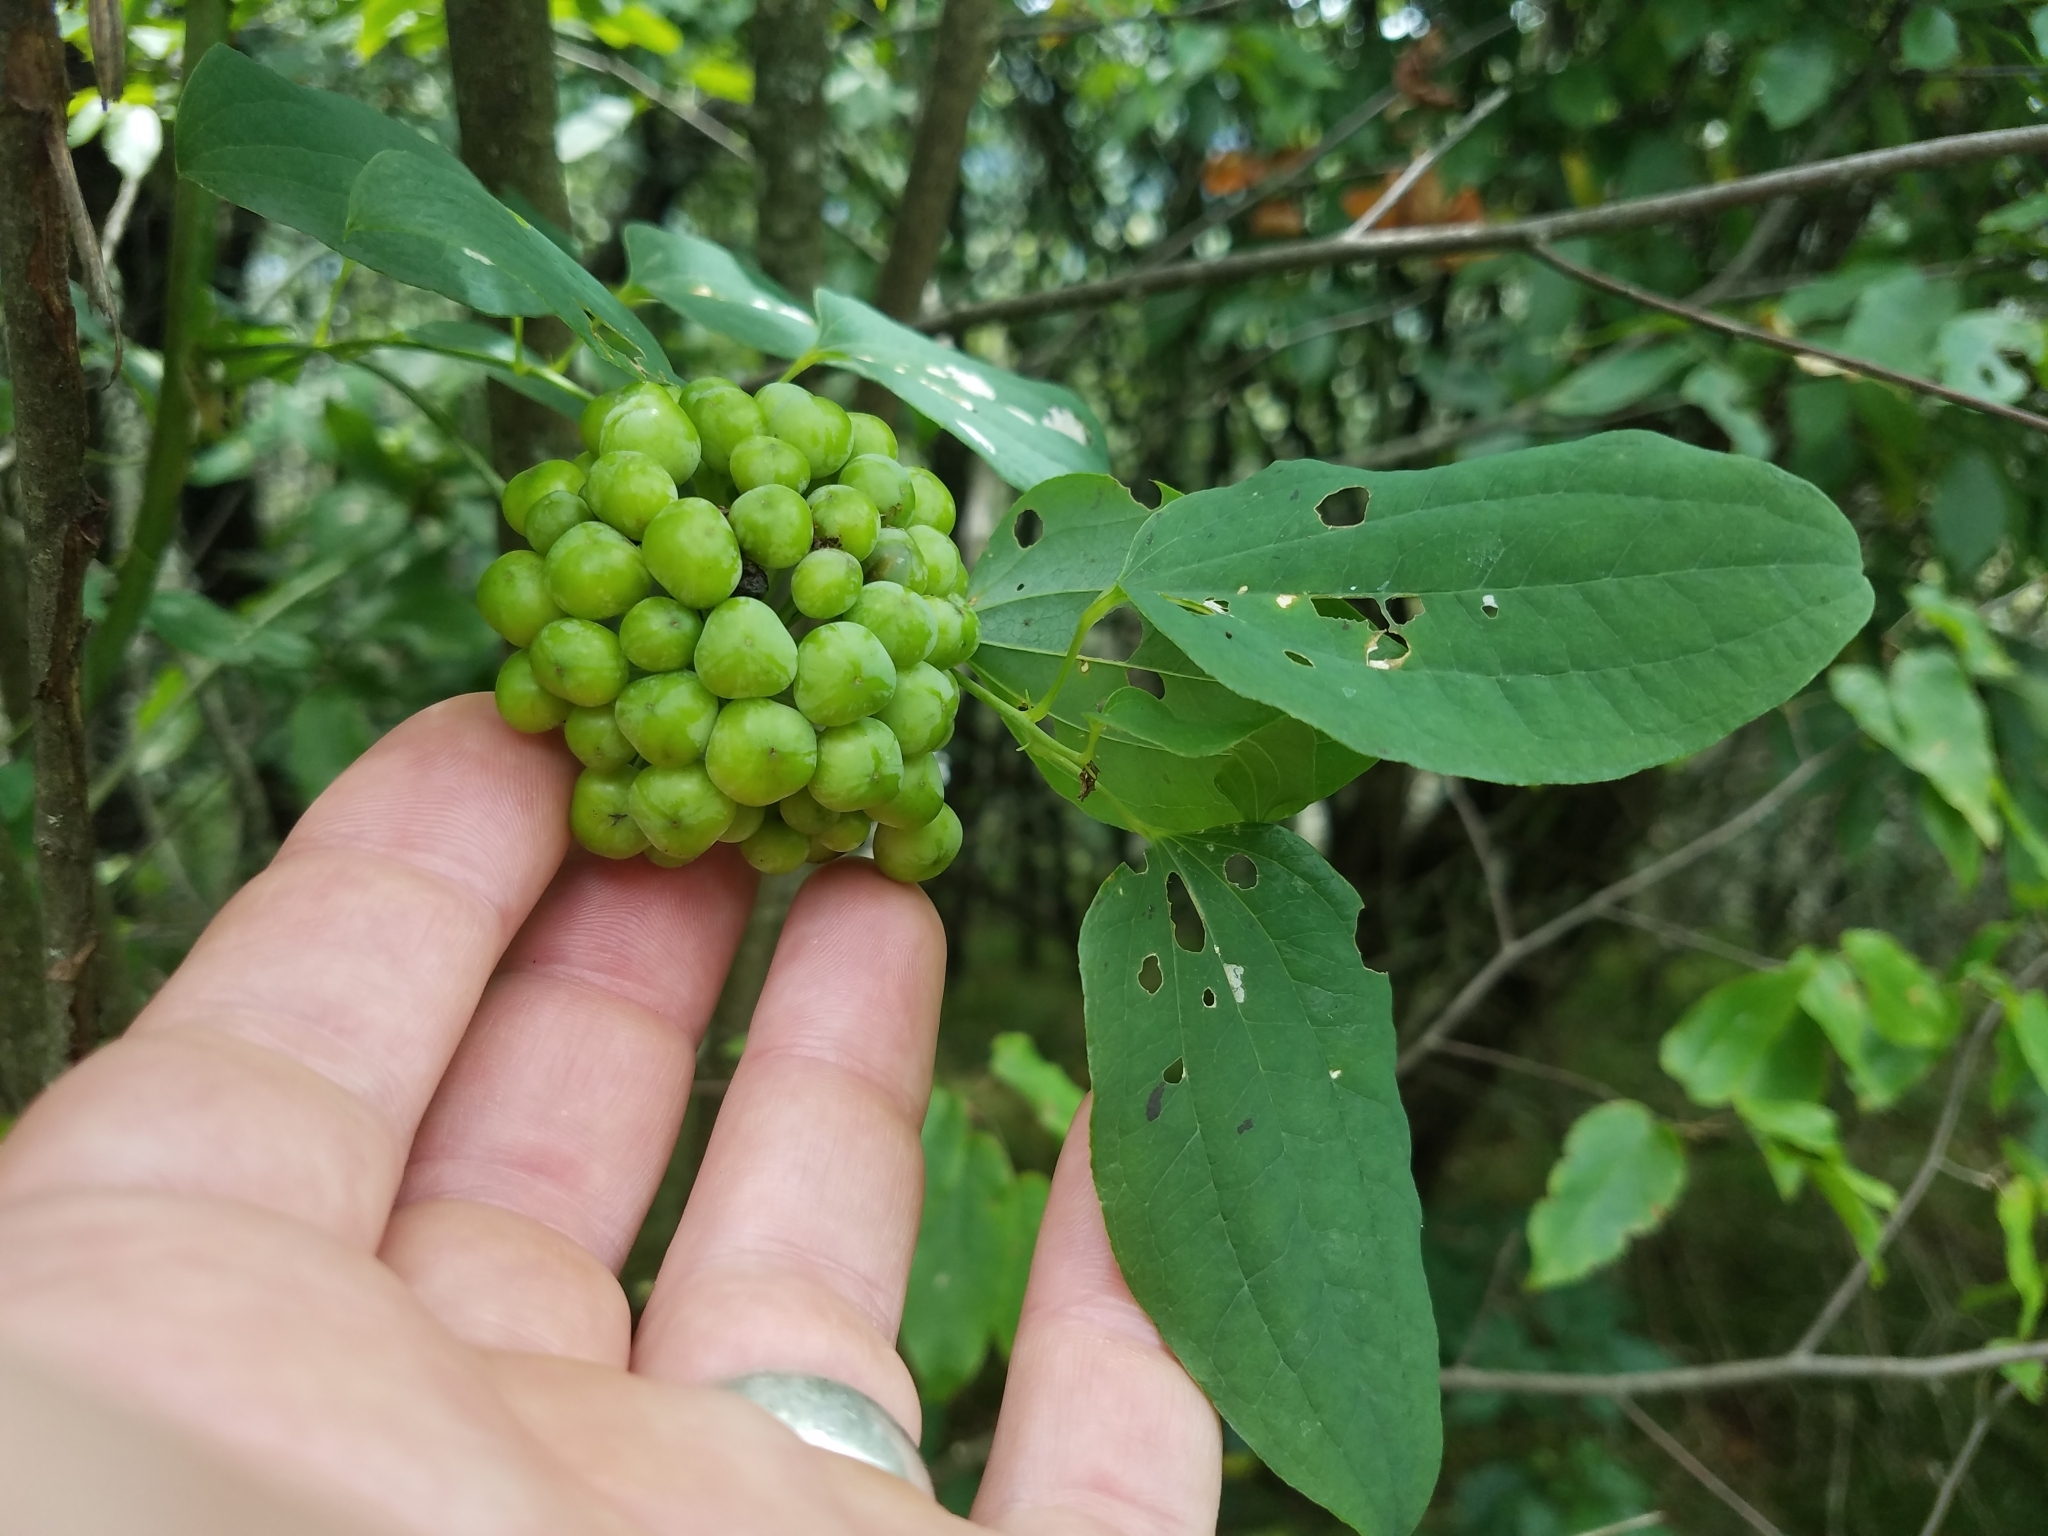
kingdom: Plantae
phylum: Tracheophyta
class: Liliopsida
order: Liliales
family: Smilacaceae
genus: Smilax
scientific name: Smilax herbacea
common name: Jacob's-ladder
